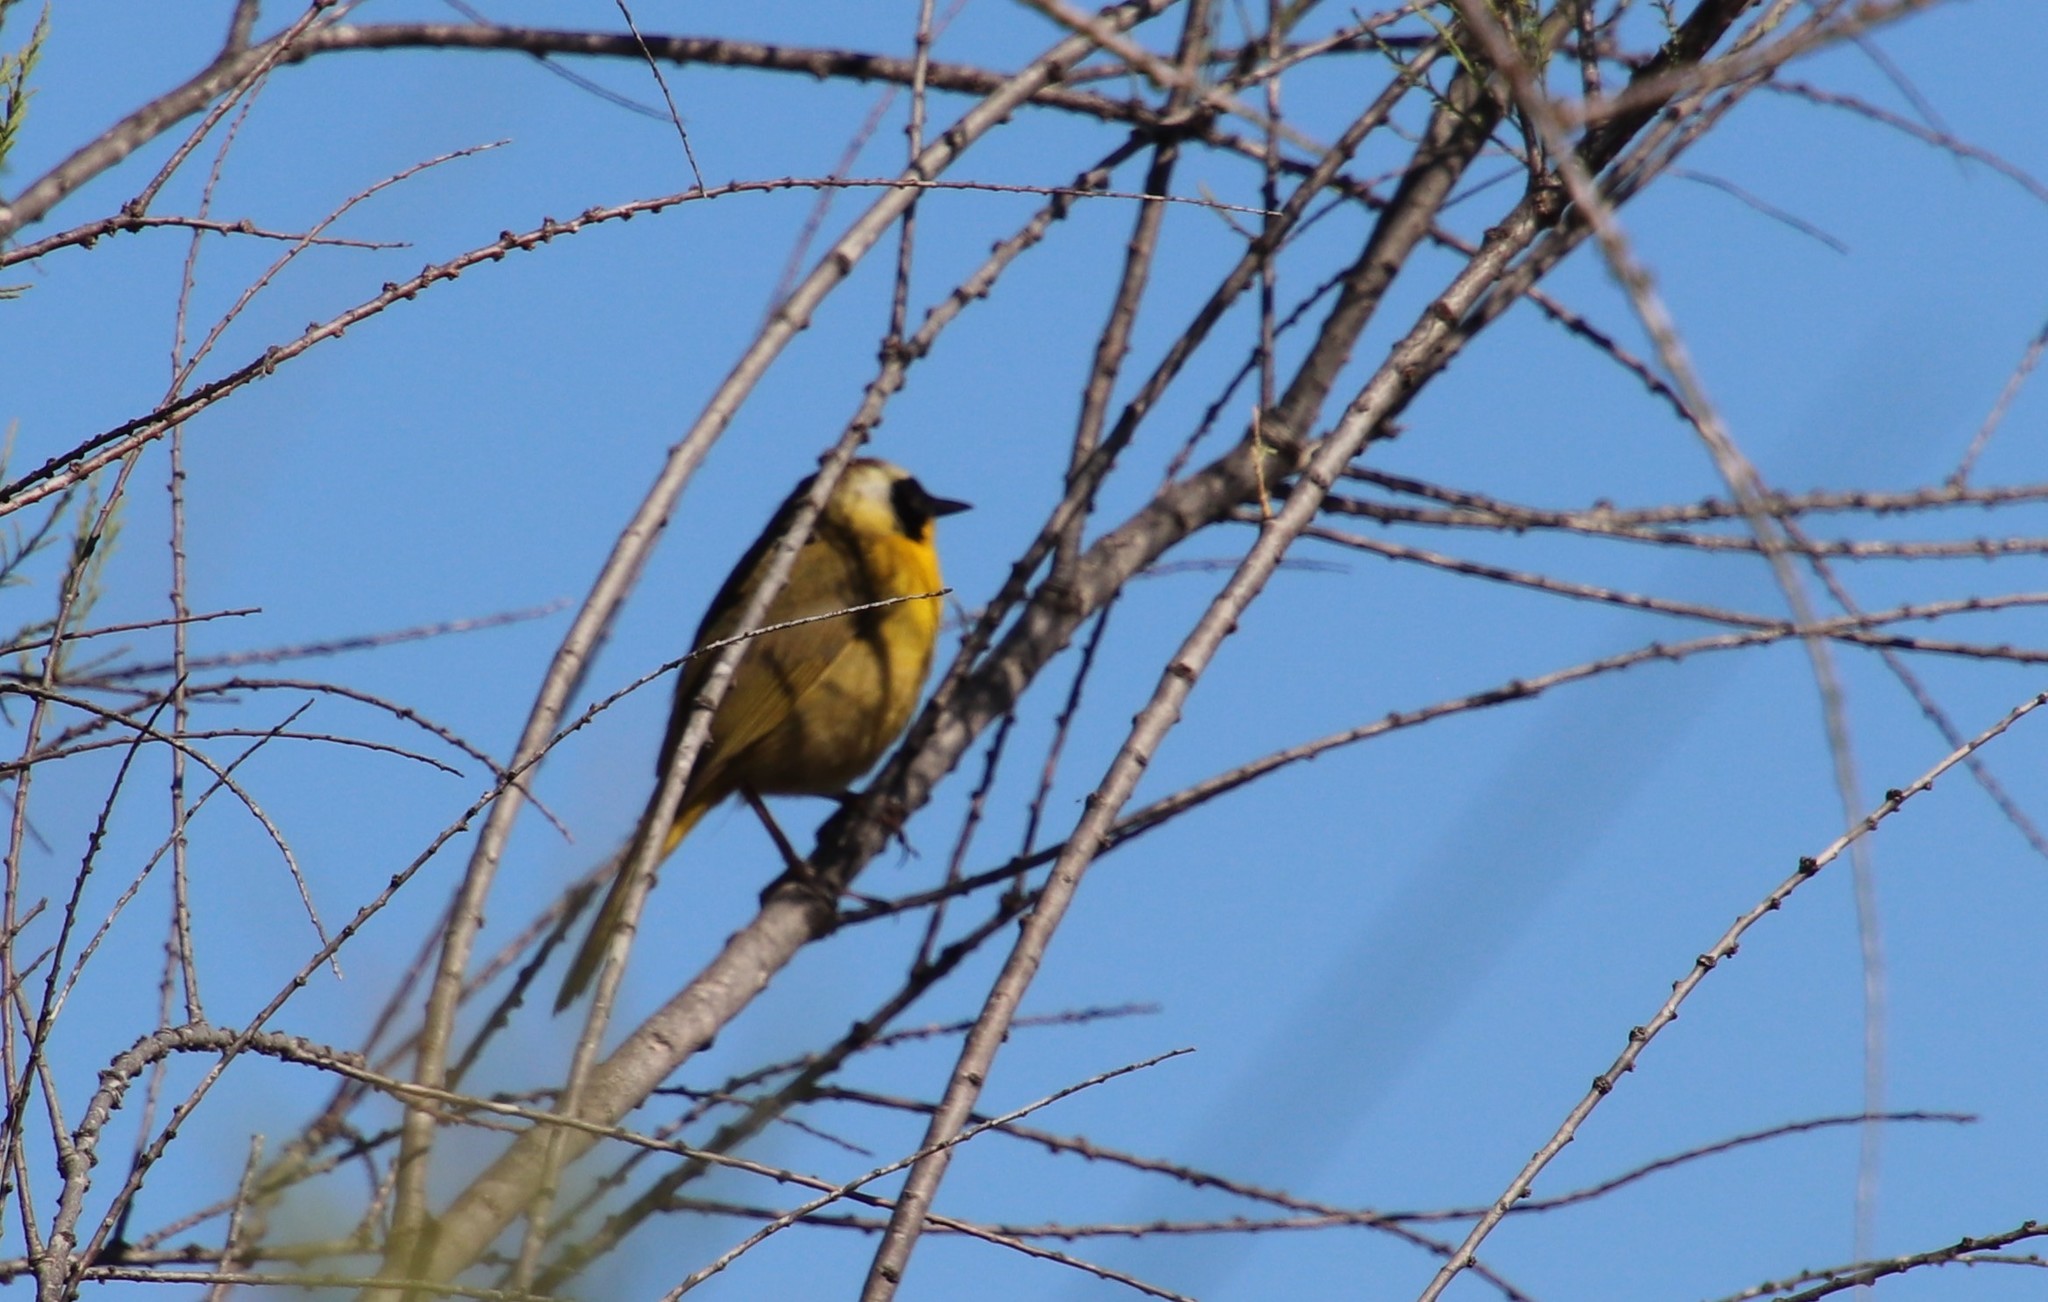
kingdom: Animalia
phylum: Chordata
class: Aves
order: Passeriformes
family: Parulidae
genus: Geothlypis
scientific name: Geothlypis trichas
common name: Common yellowthroat
